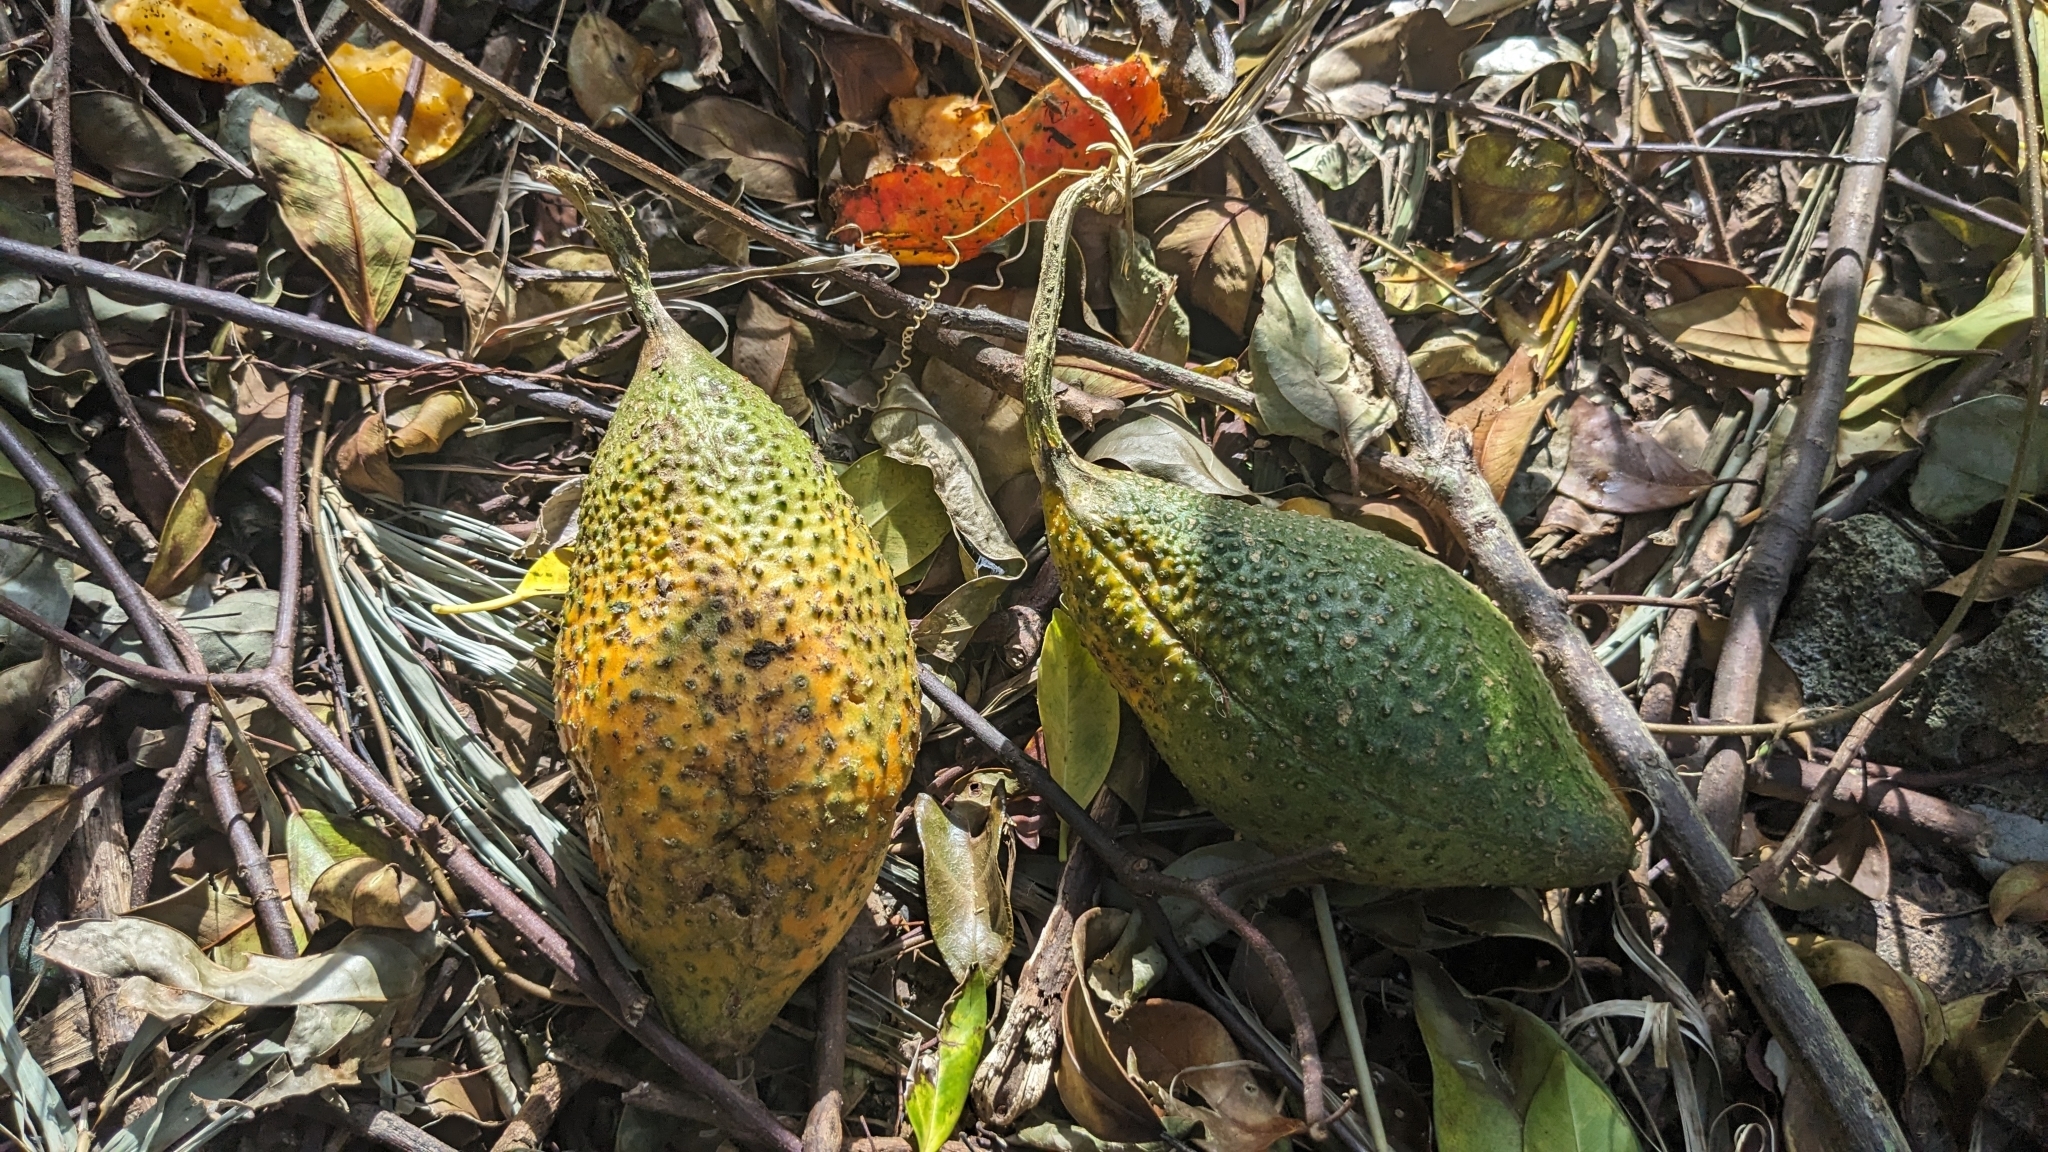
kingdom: Plantae
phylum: Tracheophyta
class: Magnoliopsida
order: Cucurbitales
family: Cucurbitaceae
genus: Momordica
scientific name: Momordica cochinchinensis
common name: Chinese bitter-cucumber
